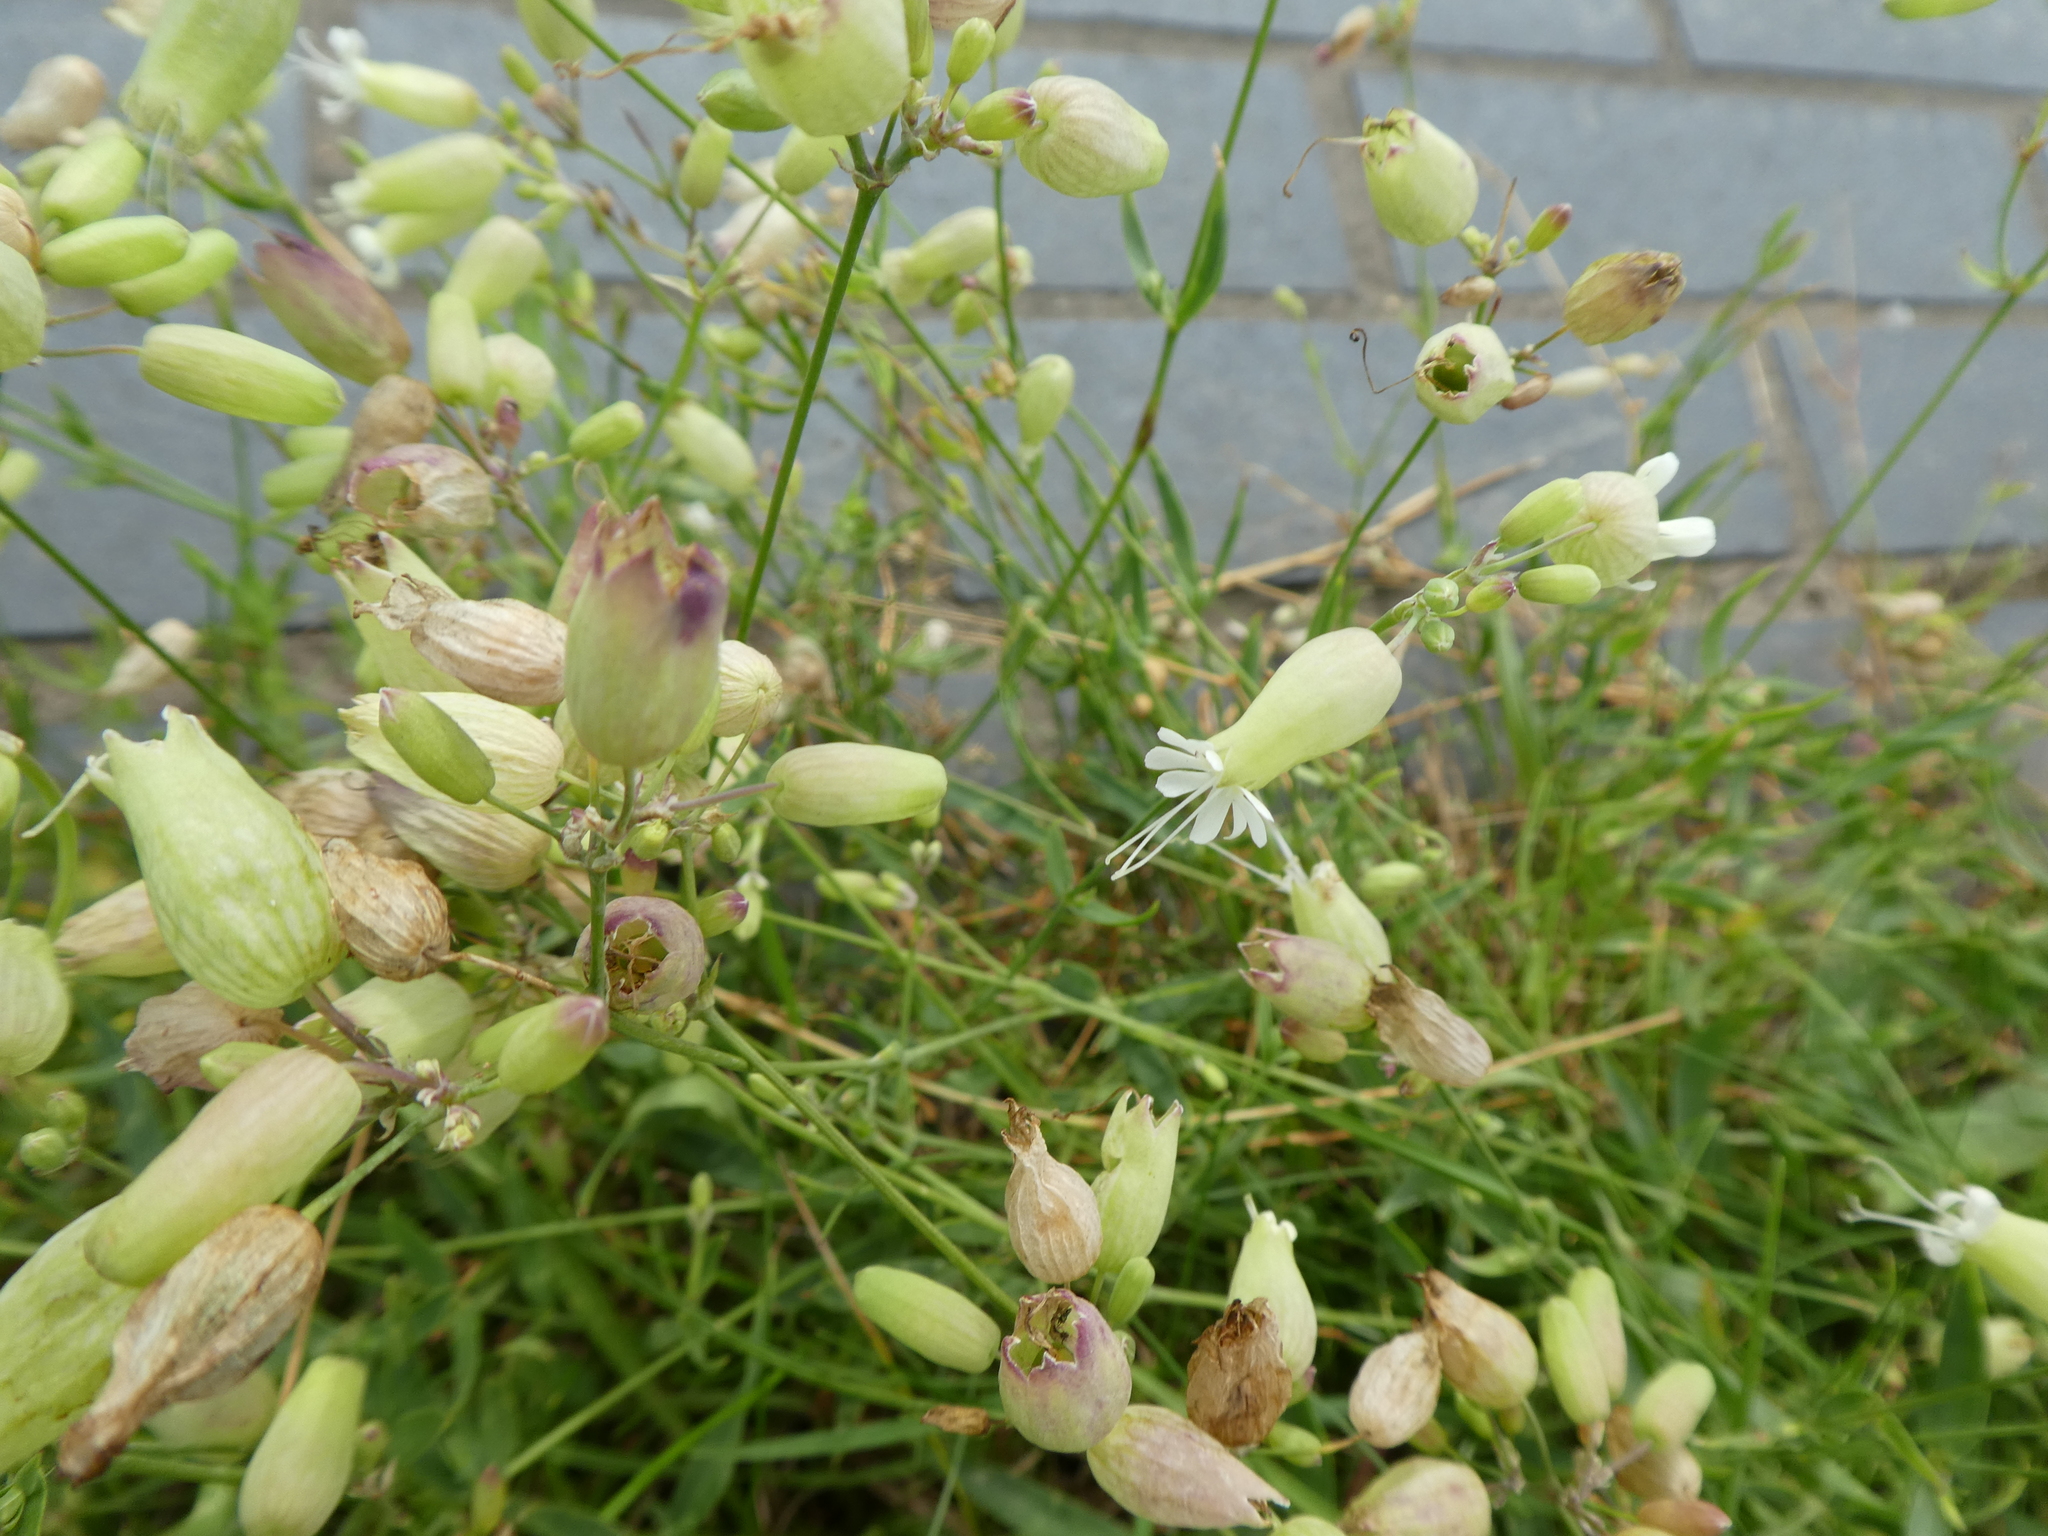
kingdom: Plantae
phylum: Tracheophyta
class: Magnoliopsida
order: Caryophyllales
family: Caryophyllaceae
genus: Silene
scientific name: Silene vulgaris
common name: Bladder campion
